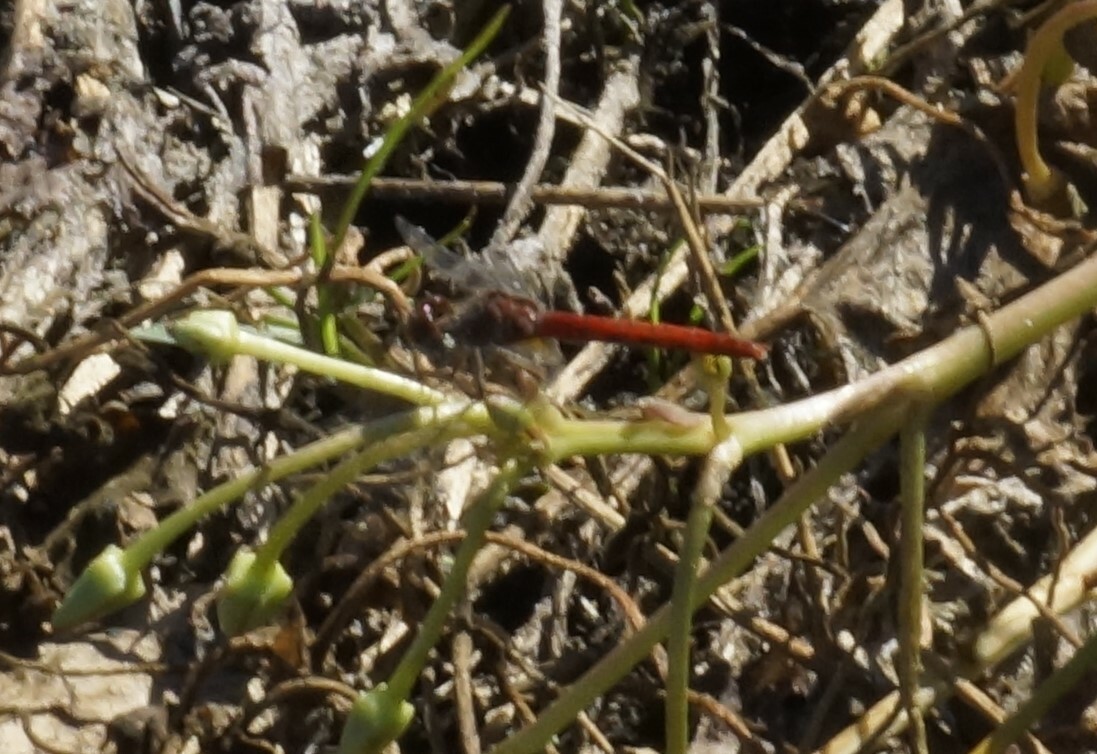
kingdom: Animalia
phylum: Arthropoda
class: Insecta
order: Odonata
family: Libellulidae
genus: Nannodiplax
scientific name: Nannodiplax rubra
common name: Pygmy percher
